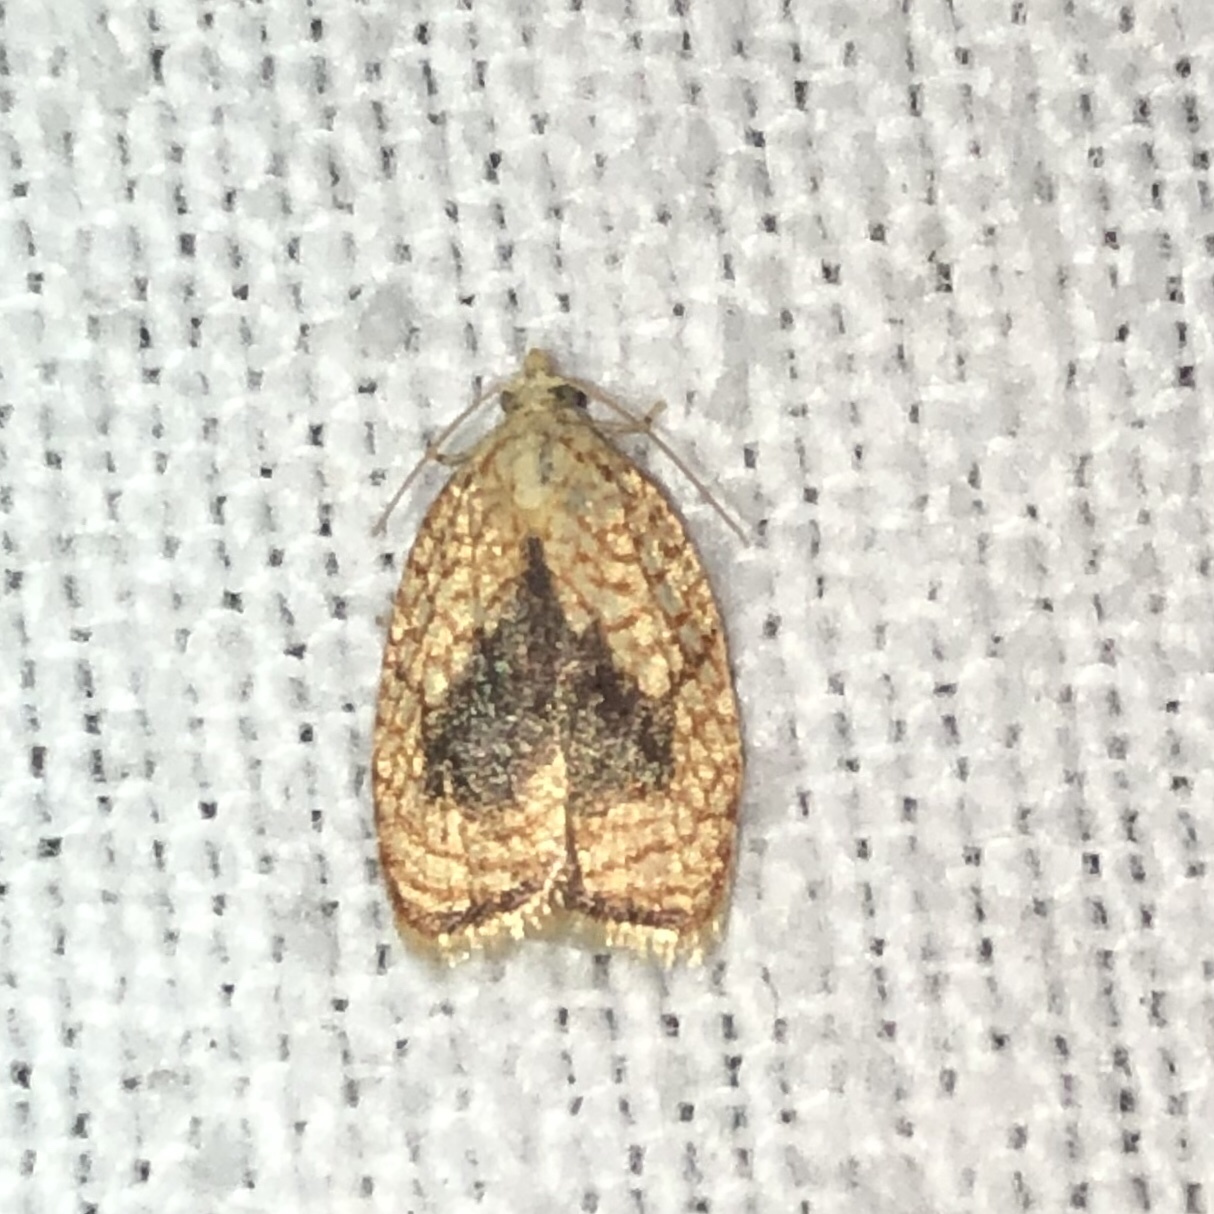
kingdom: Animalia
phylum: Arthropoda
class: Insecta
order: Lepidoptera
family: Tortricidae
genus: Acleris
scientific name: Acleris forsskaleana
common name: Maple button
